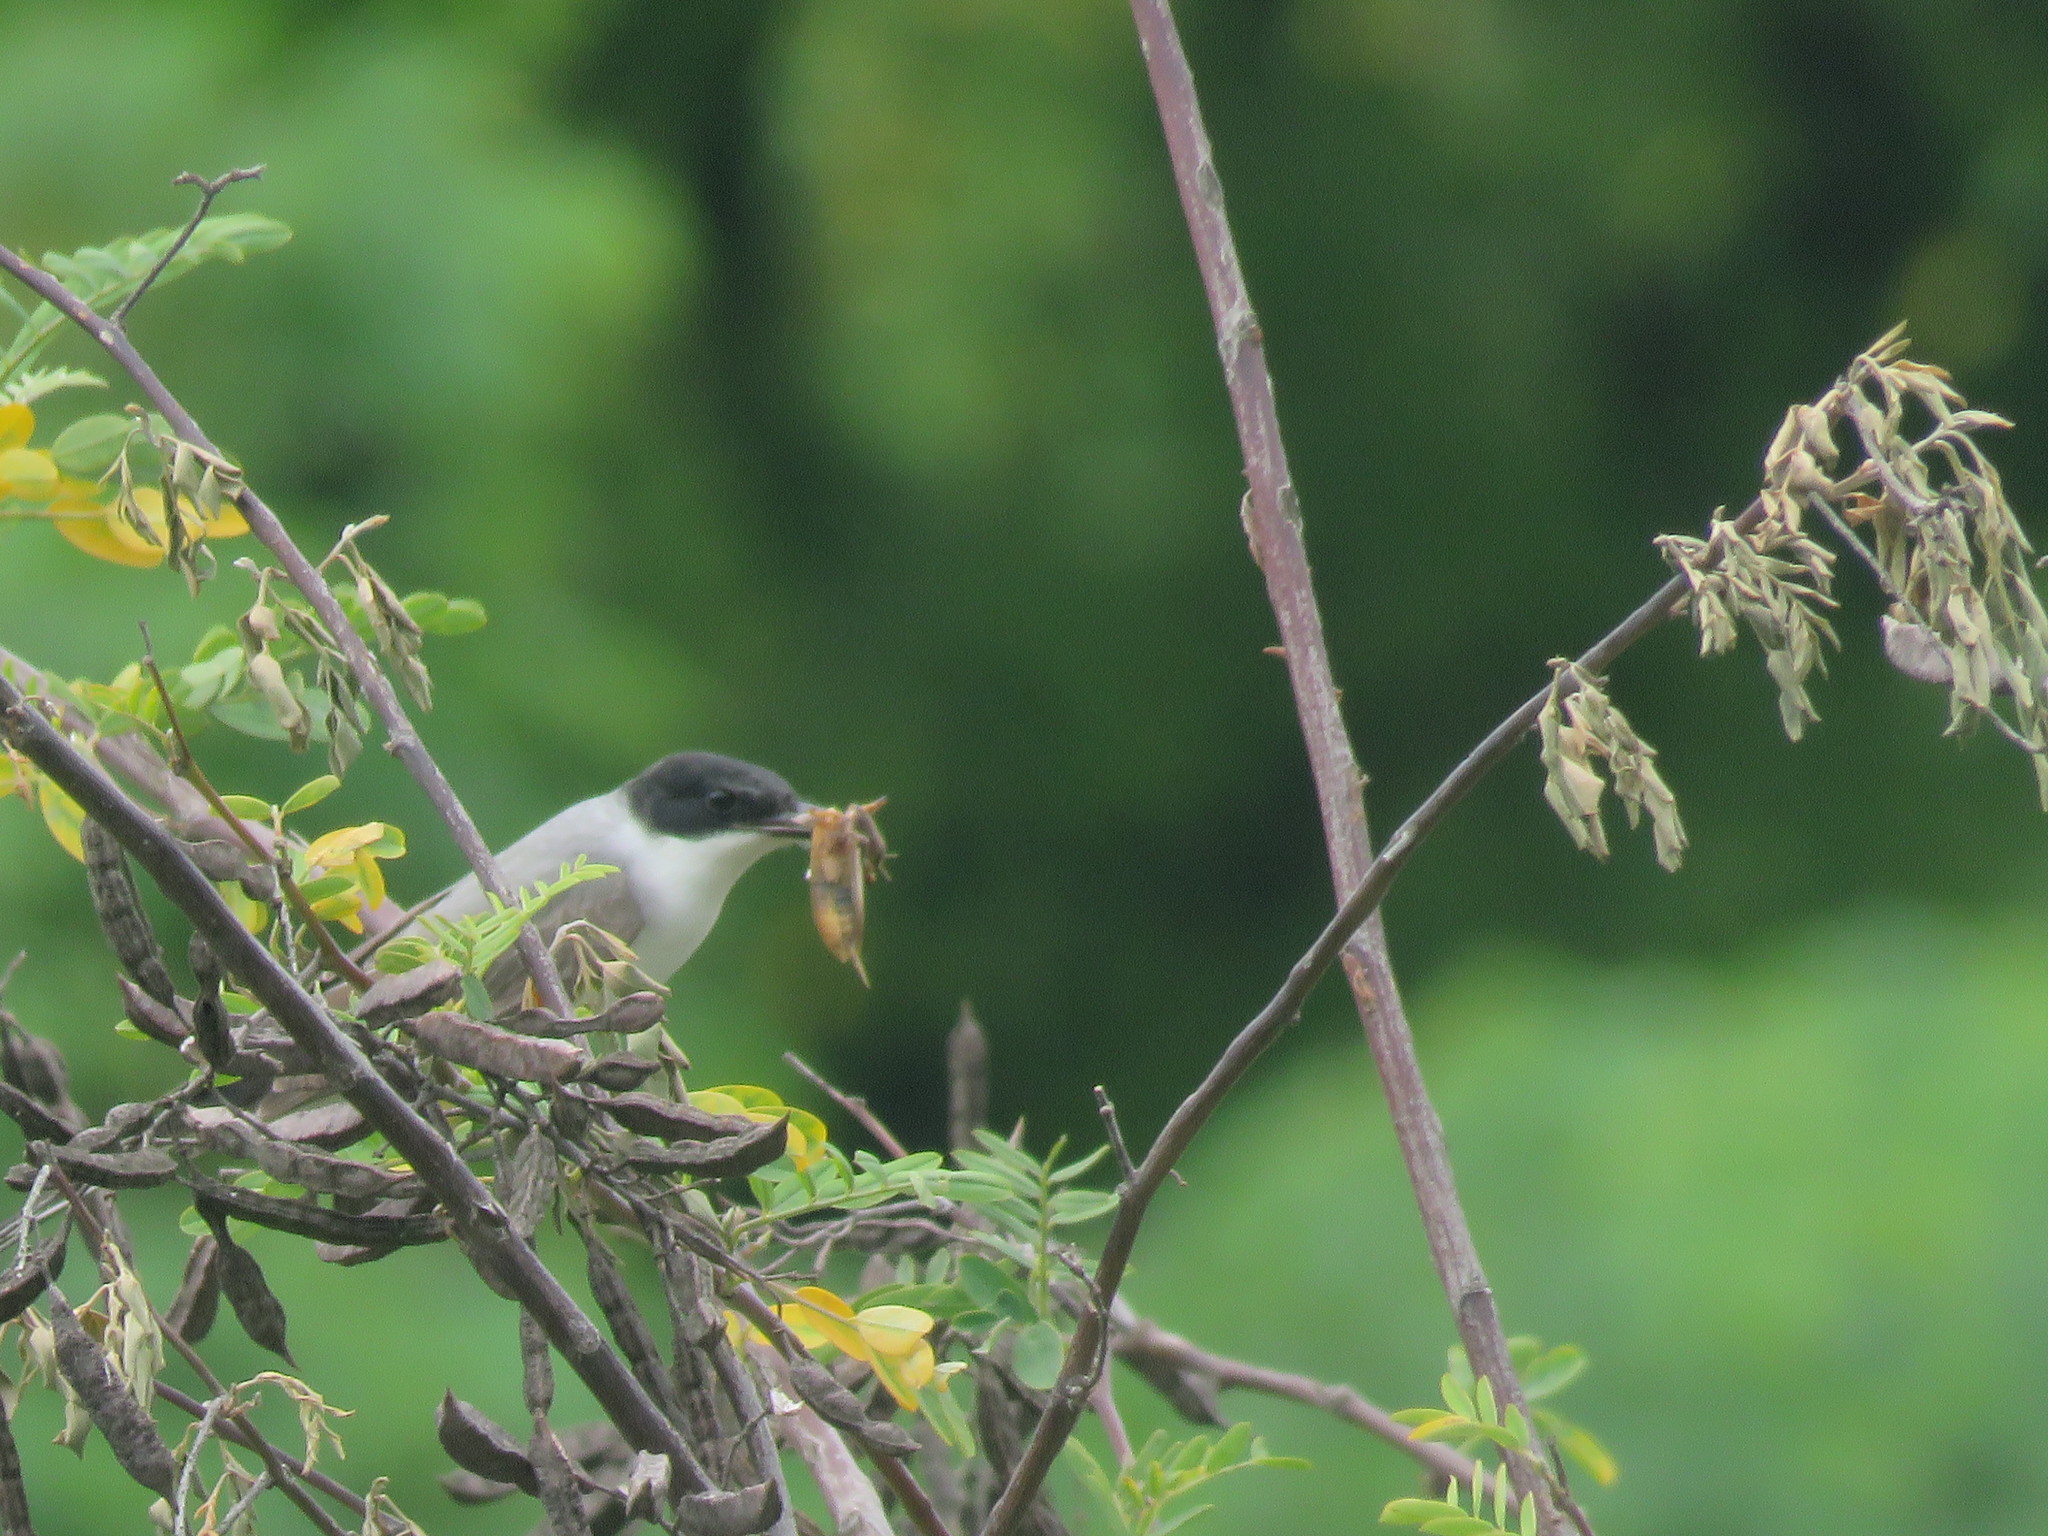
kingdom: Animalia
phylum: Chordata
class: Aves
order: Passeriformes
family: Tyrannidae
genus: Tyrannus
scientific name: Tyrannus savana
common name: Fork-tailed flycatcher
